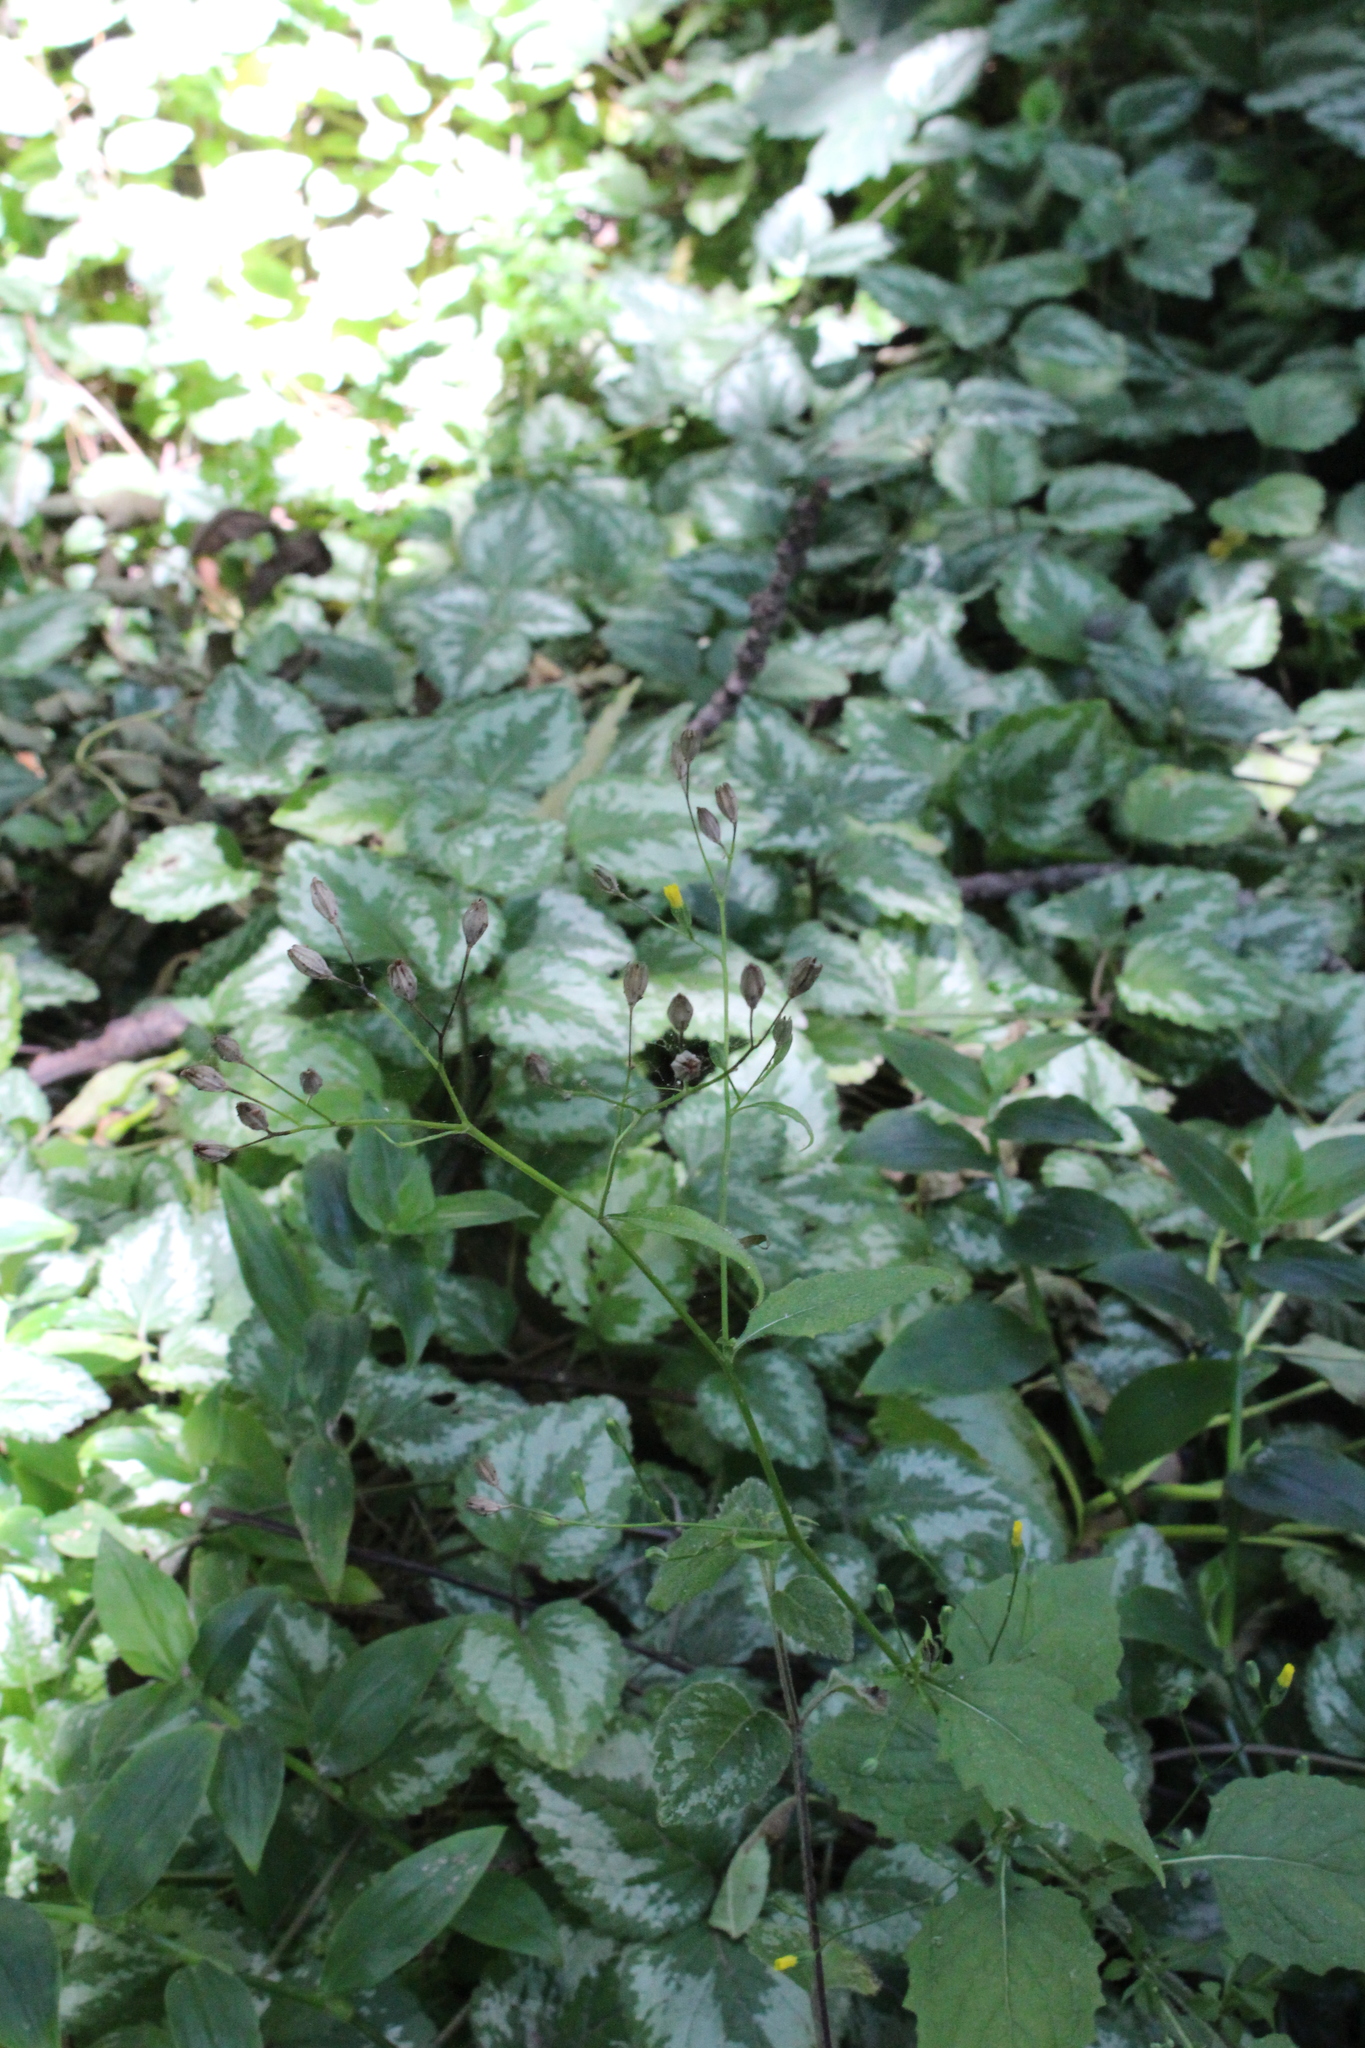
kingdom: Plantae
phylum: Tracheophyta
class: Magnoliopsida
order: Asterales
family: Asteraceae
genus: Lapsana
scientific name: Lapsana communis
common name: Nipplewort
